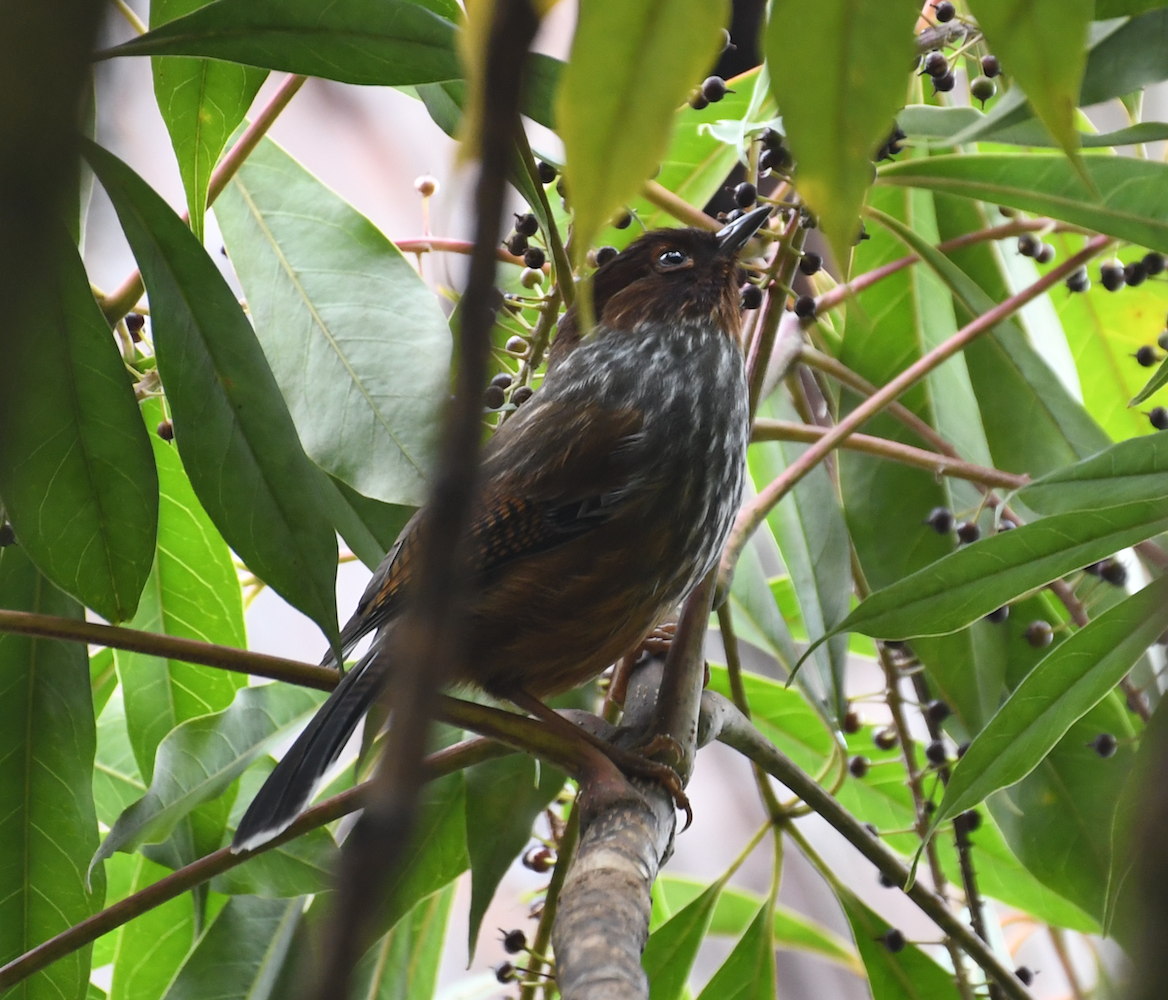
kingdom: Animalia
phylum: Chordata
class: Aves
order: Passeriformes
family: Leiothrichidae
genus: Actinodura
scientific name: Actinodura morrisoniana
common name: Taiwan barwing
